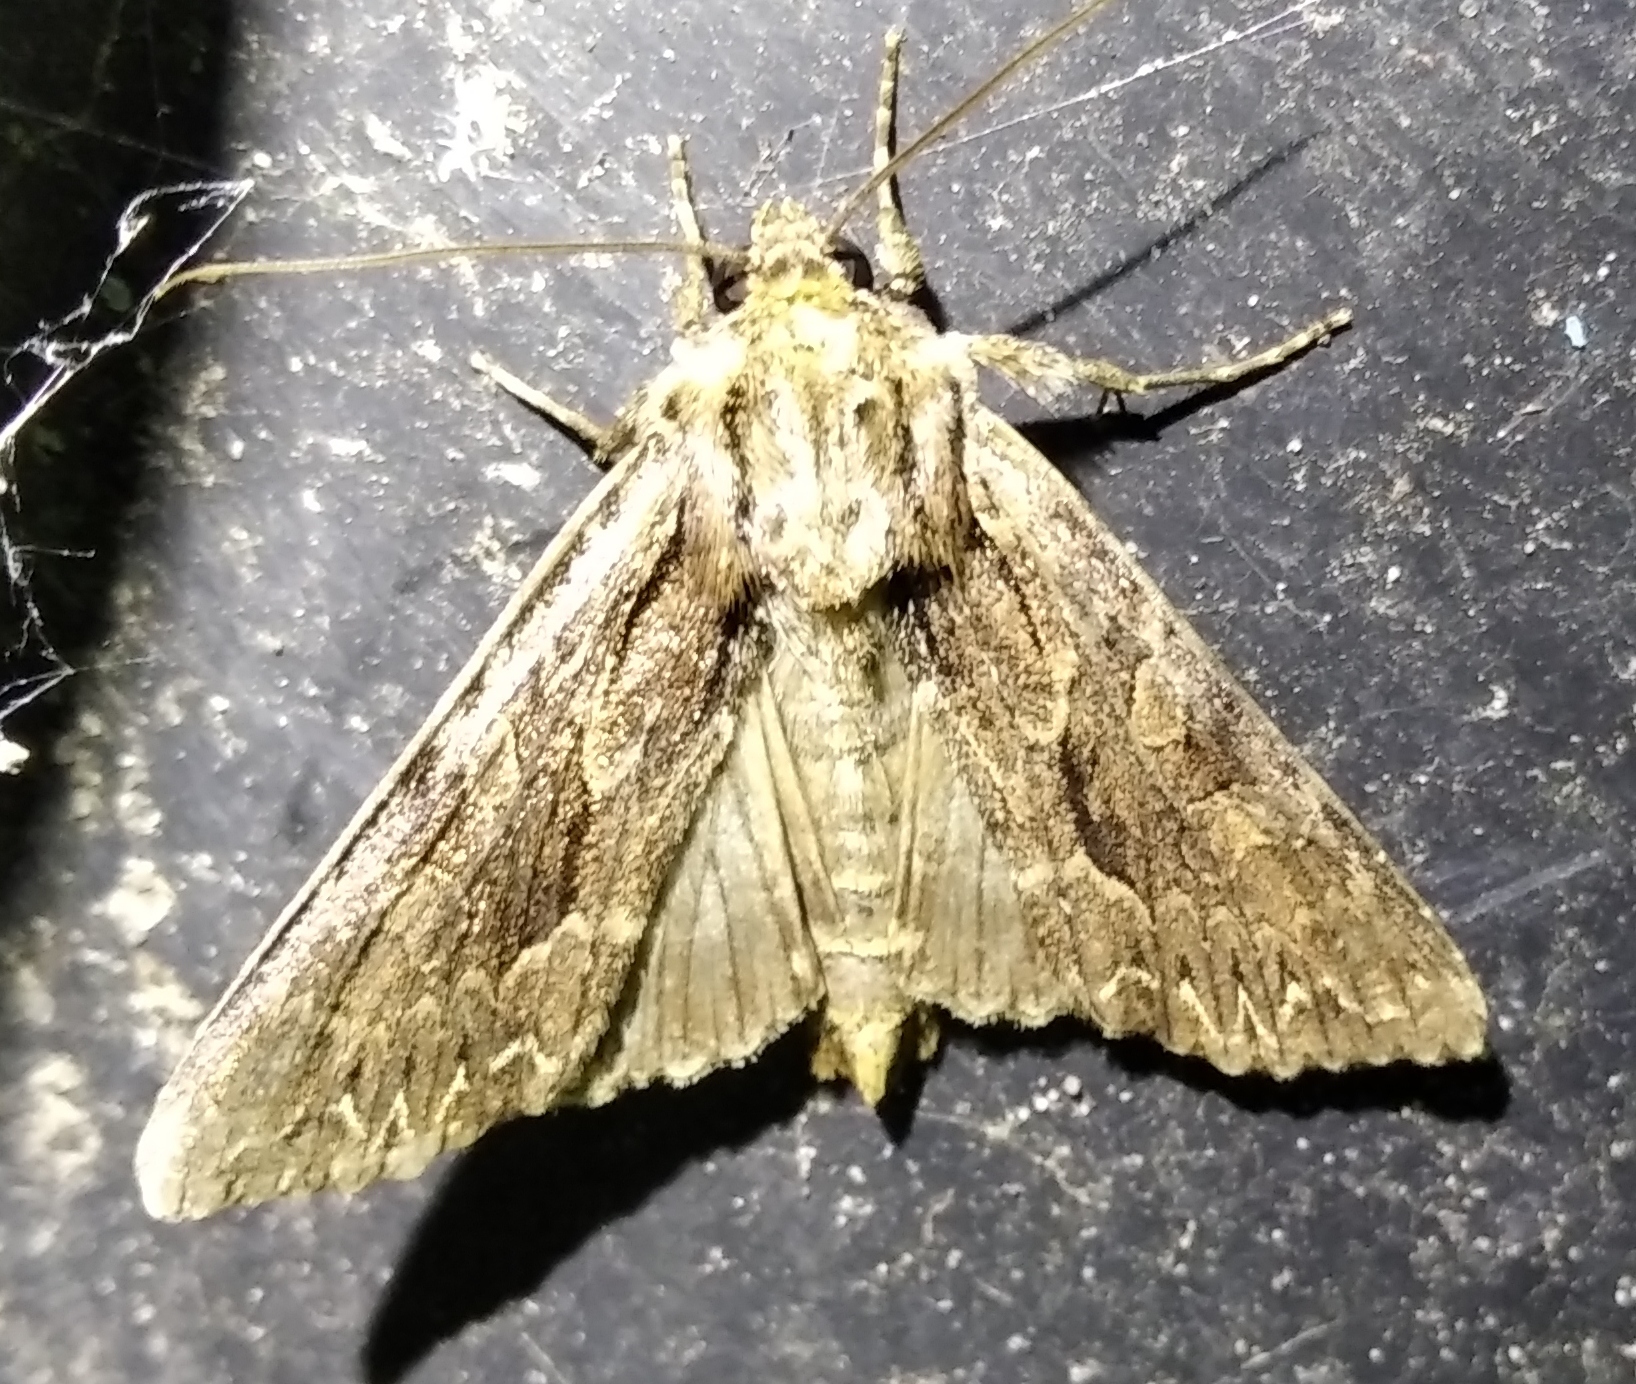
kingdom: Animalia
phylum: Arthropoda
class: Insecta
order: Lepidoptera
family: Noctuidae
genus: Apamea
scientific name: Apamea monoglypha
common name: Dark arches
